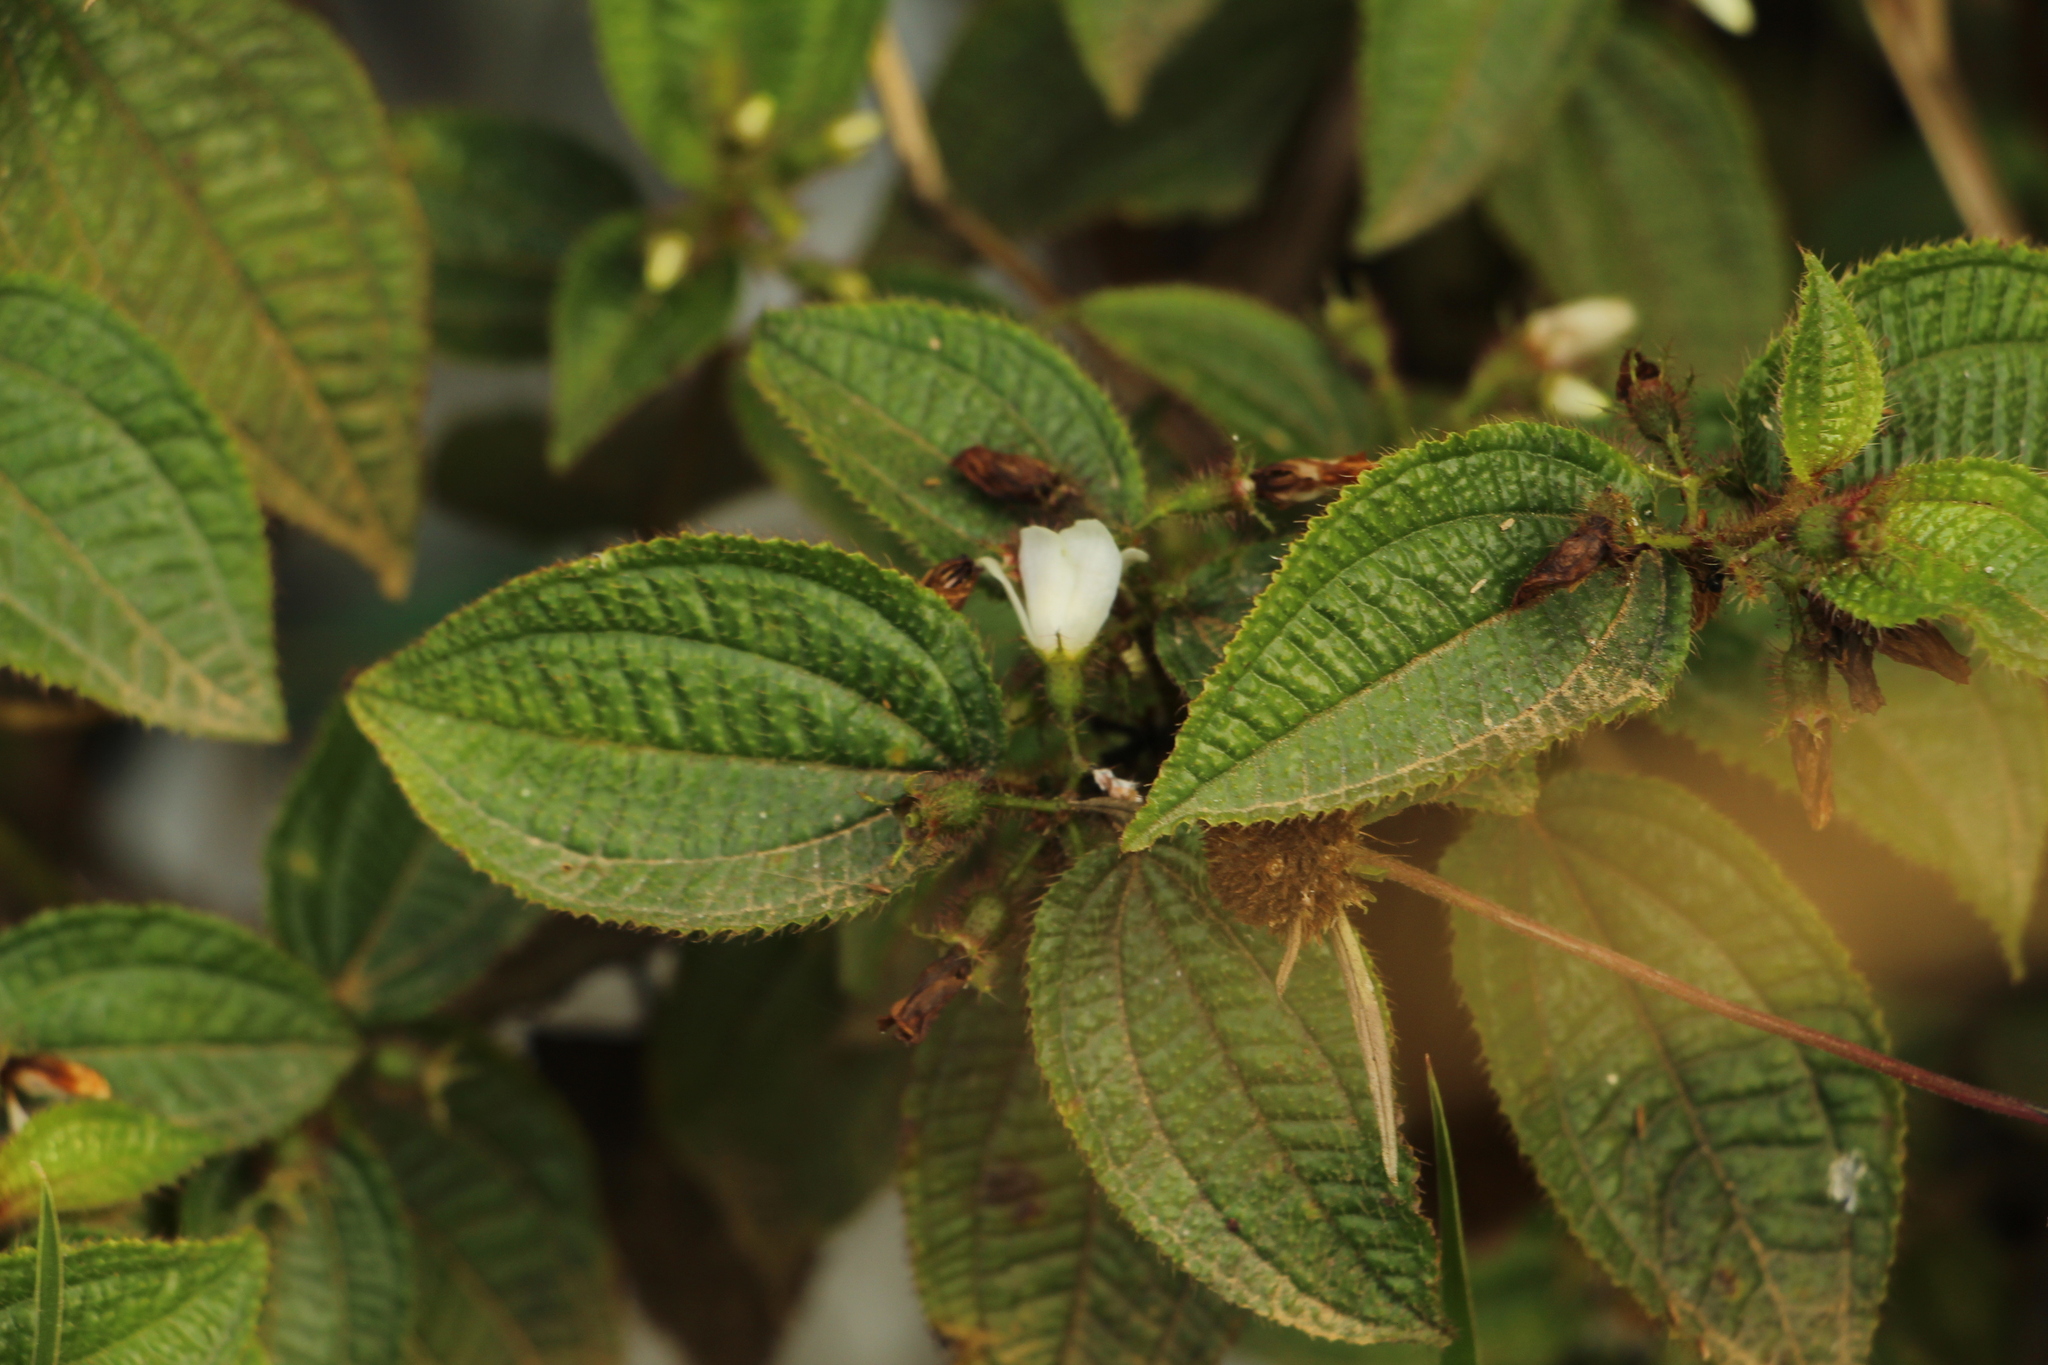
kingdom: Plantae
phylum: Tracheophyta
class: Magnoliopsida
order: Myrtales
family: Melastomataceae
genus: Miconia
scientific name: Miconia crenata
